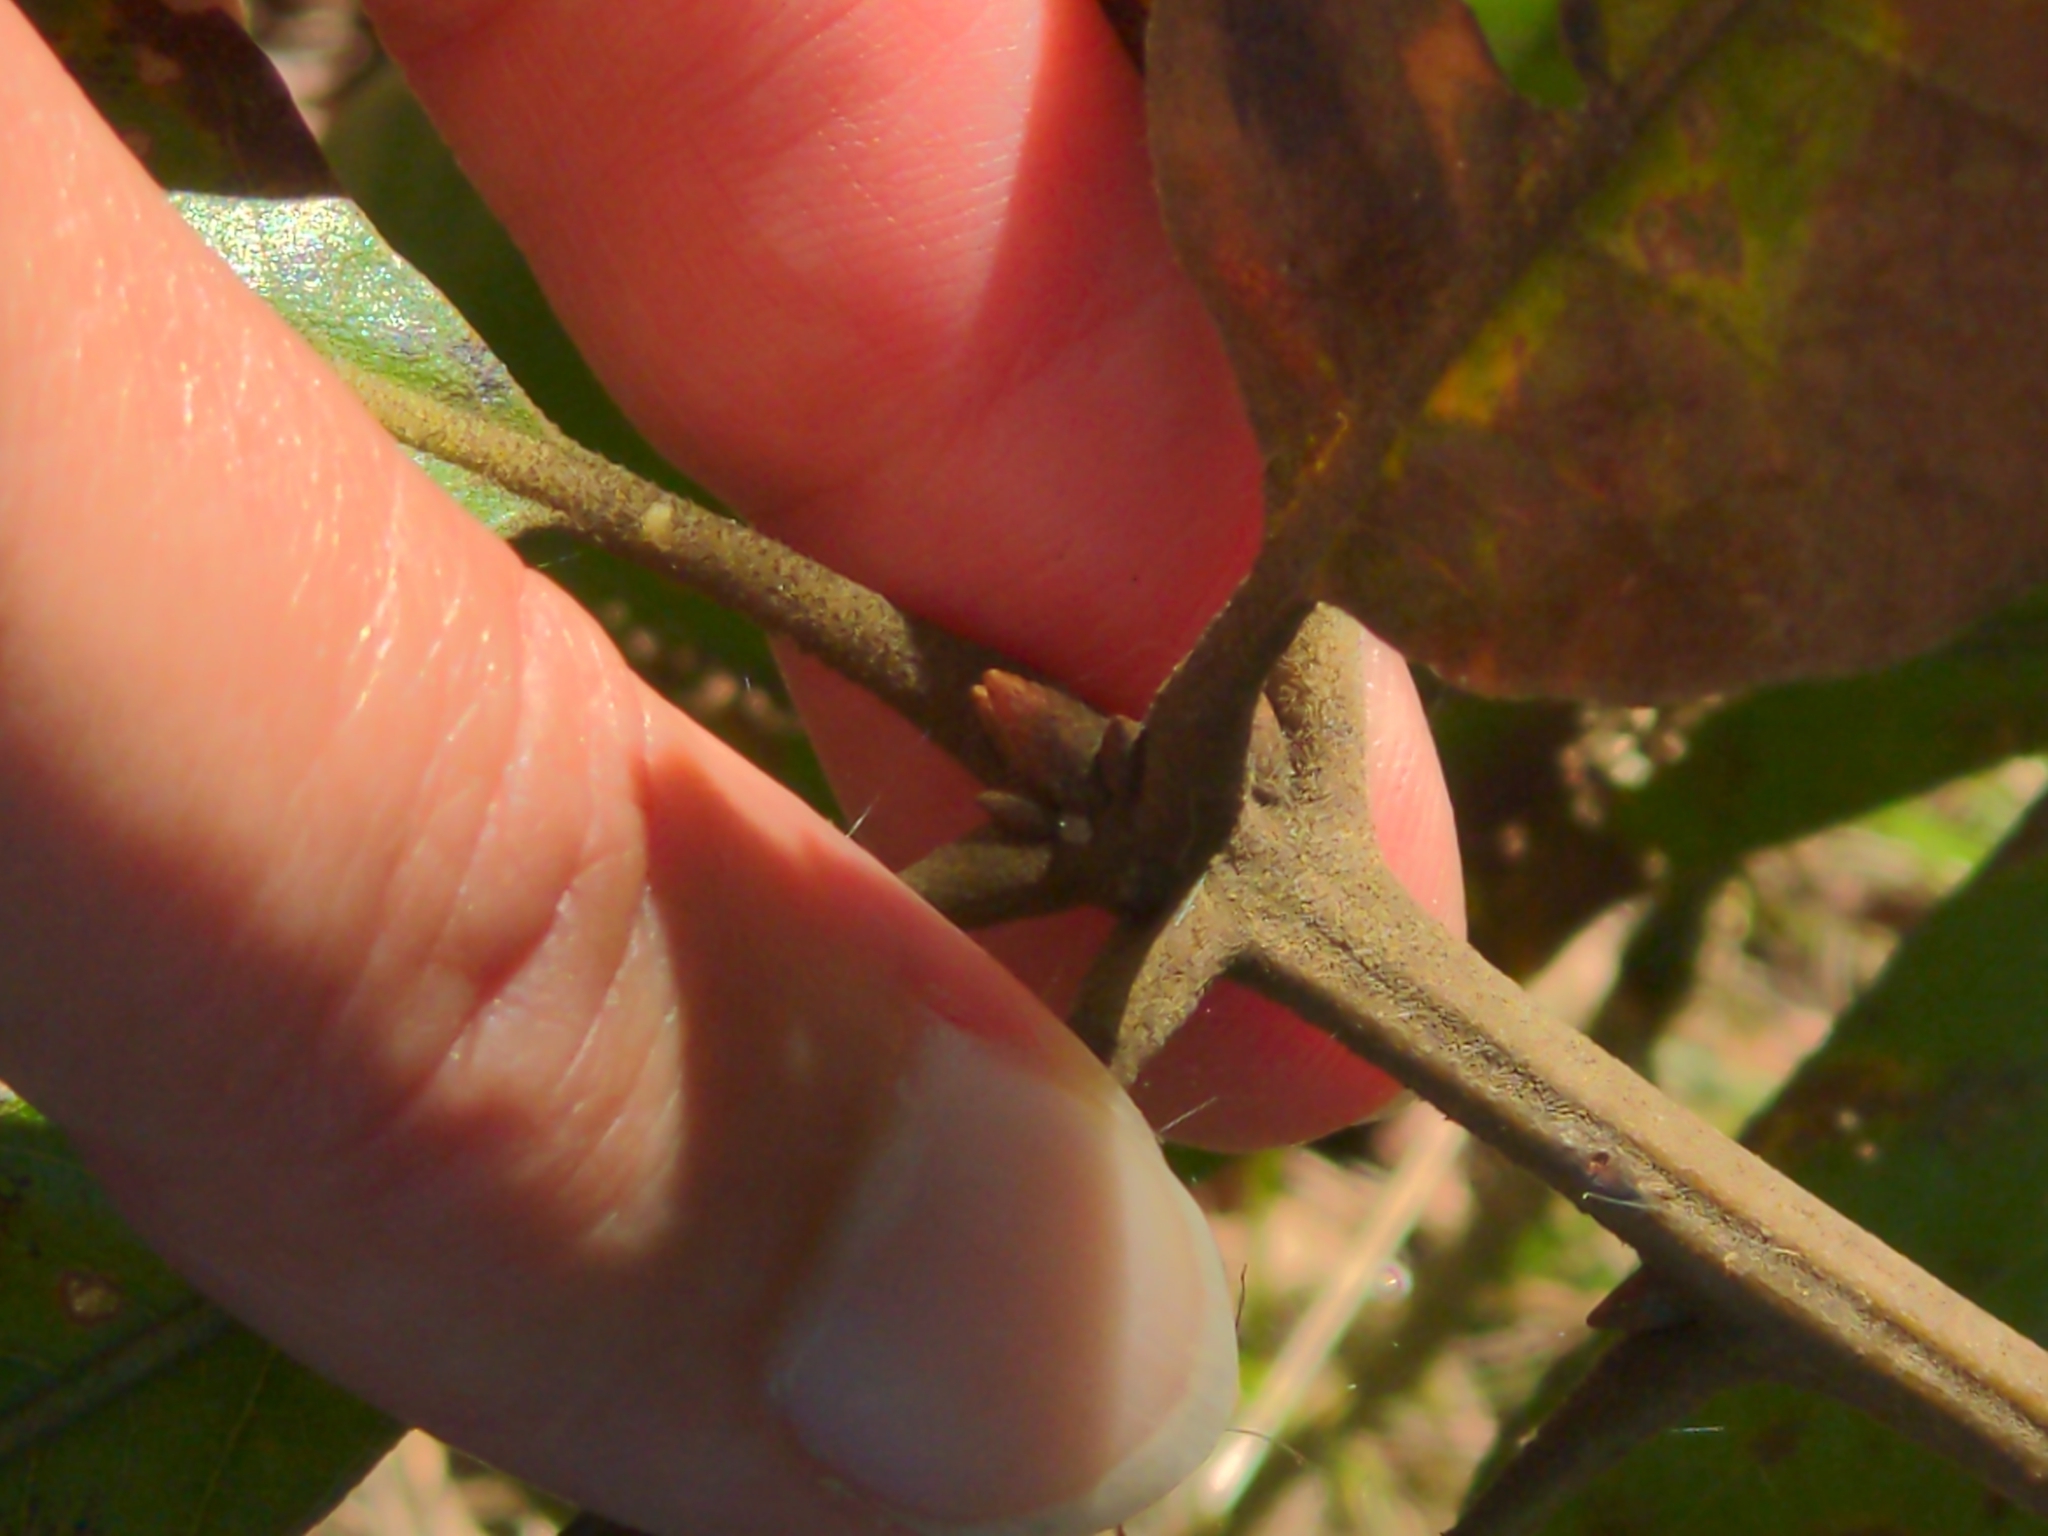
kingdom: Plantae
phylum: Tracheophyta
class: Magnoliopsida
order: Fagales
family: Fagaceae
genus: Quercus
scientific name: Quercus marilandica
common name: Blackjack oak
